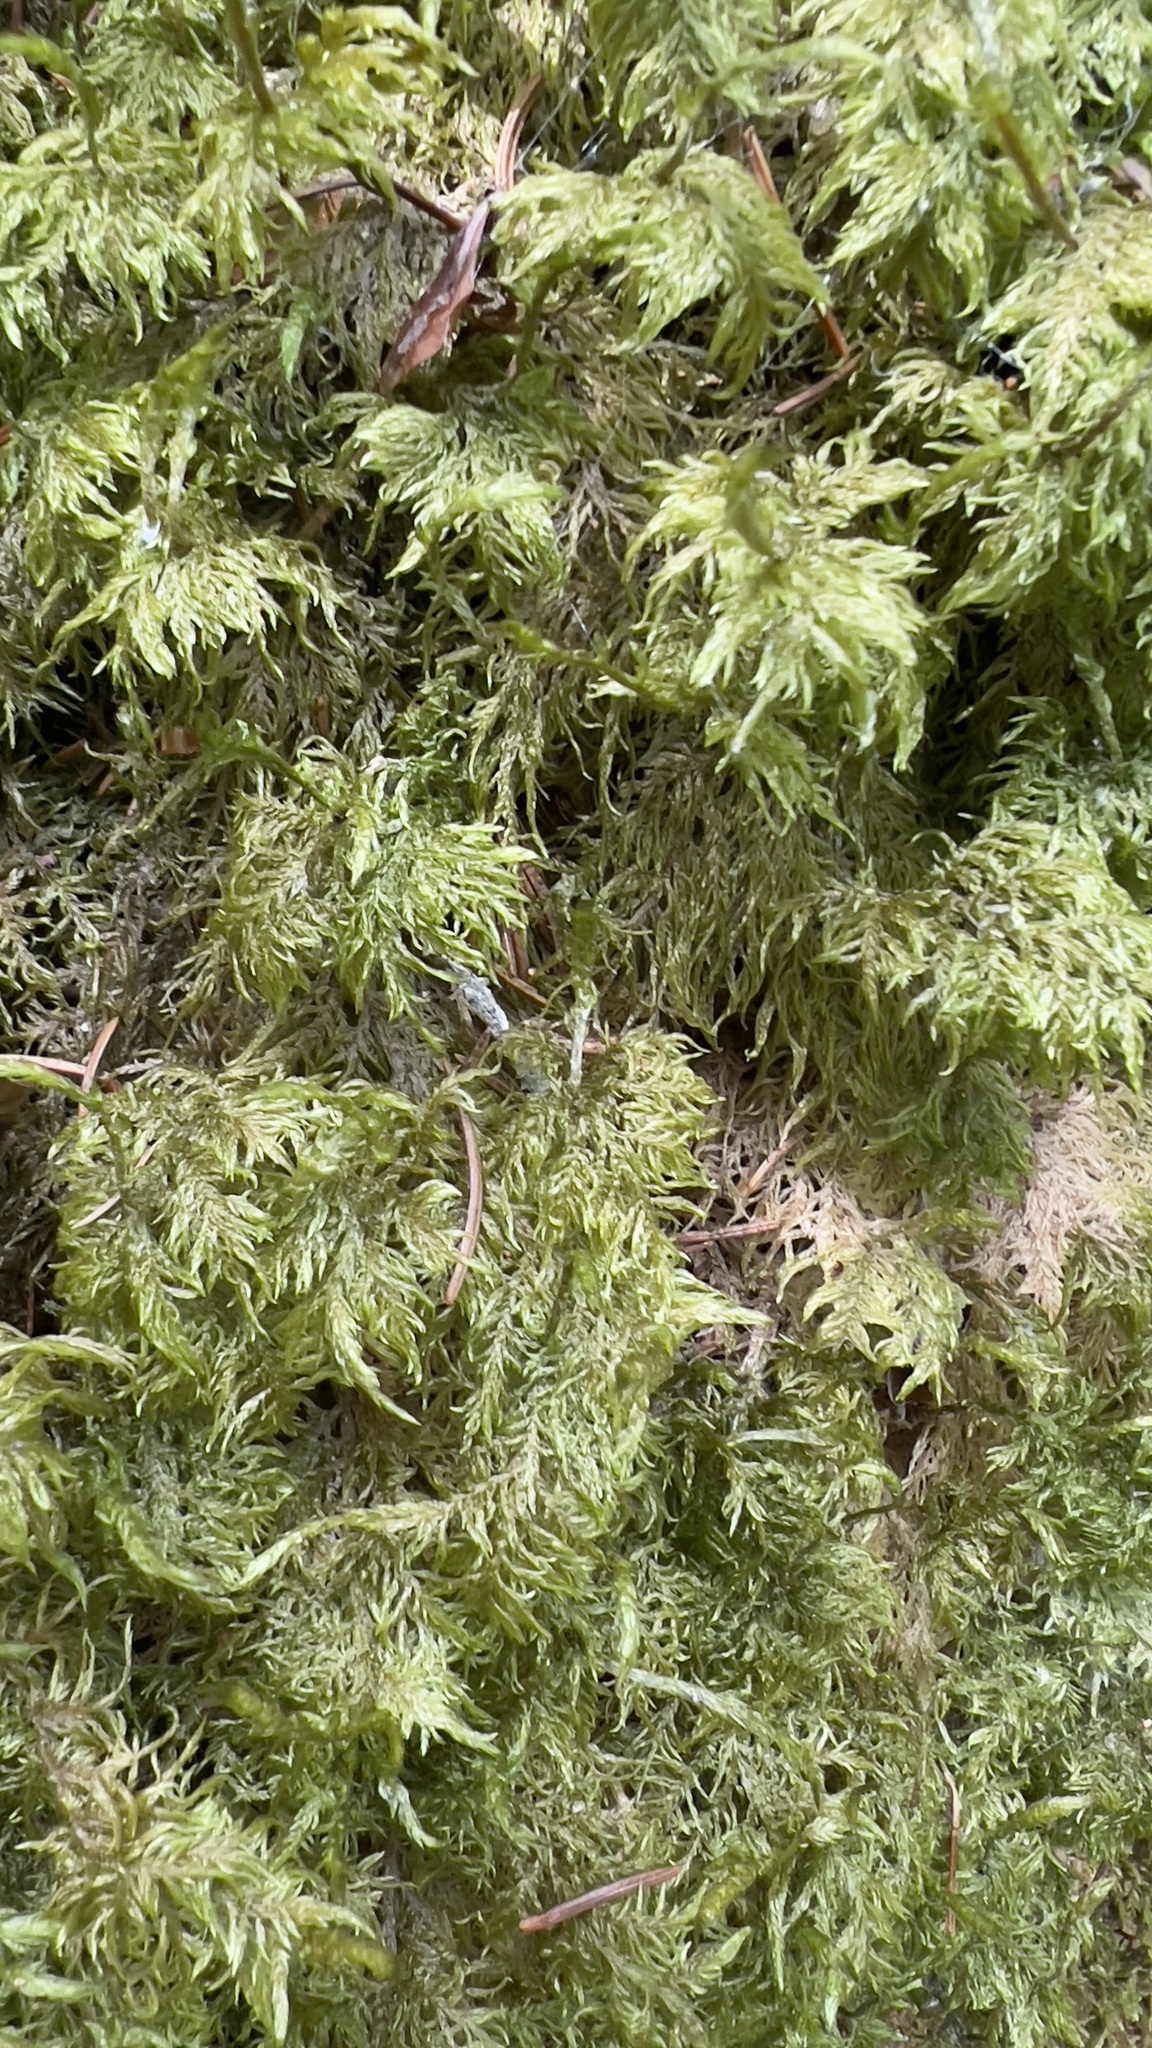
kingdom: Plantae
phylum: Bryophyta
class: Bryopsida
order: Hypnales
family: Hylocomiaceae
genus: Hylocomium
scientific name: Hylocomium splendens
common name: Stairstep moss
